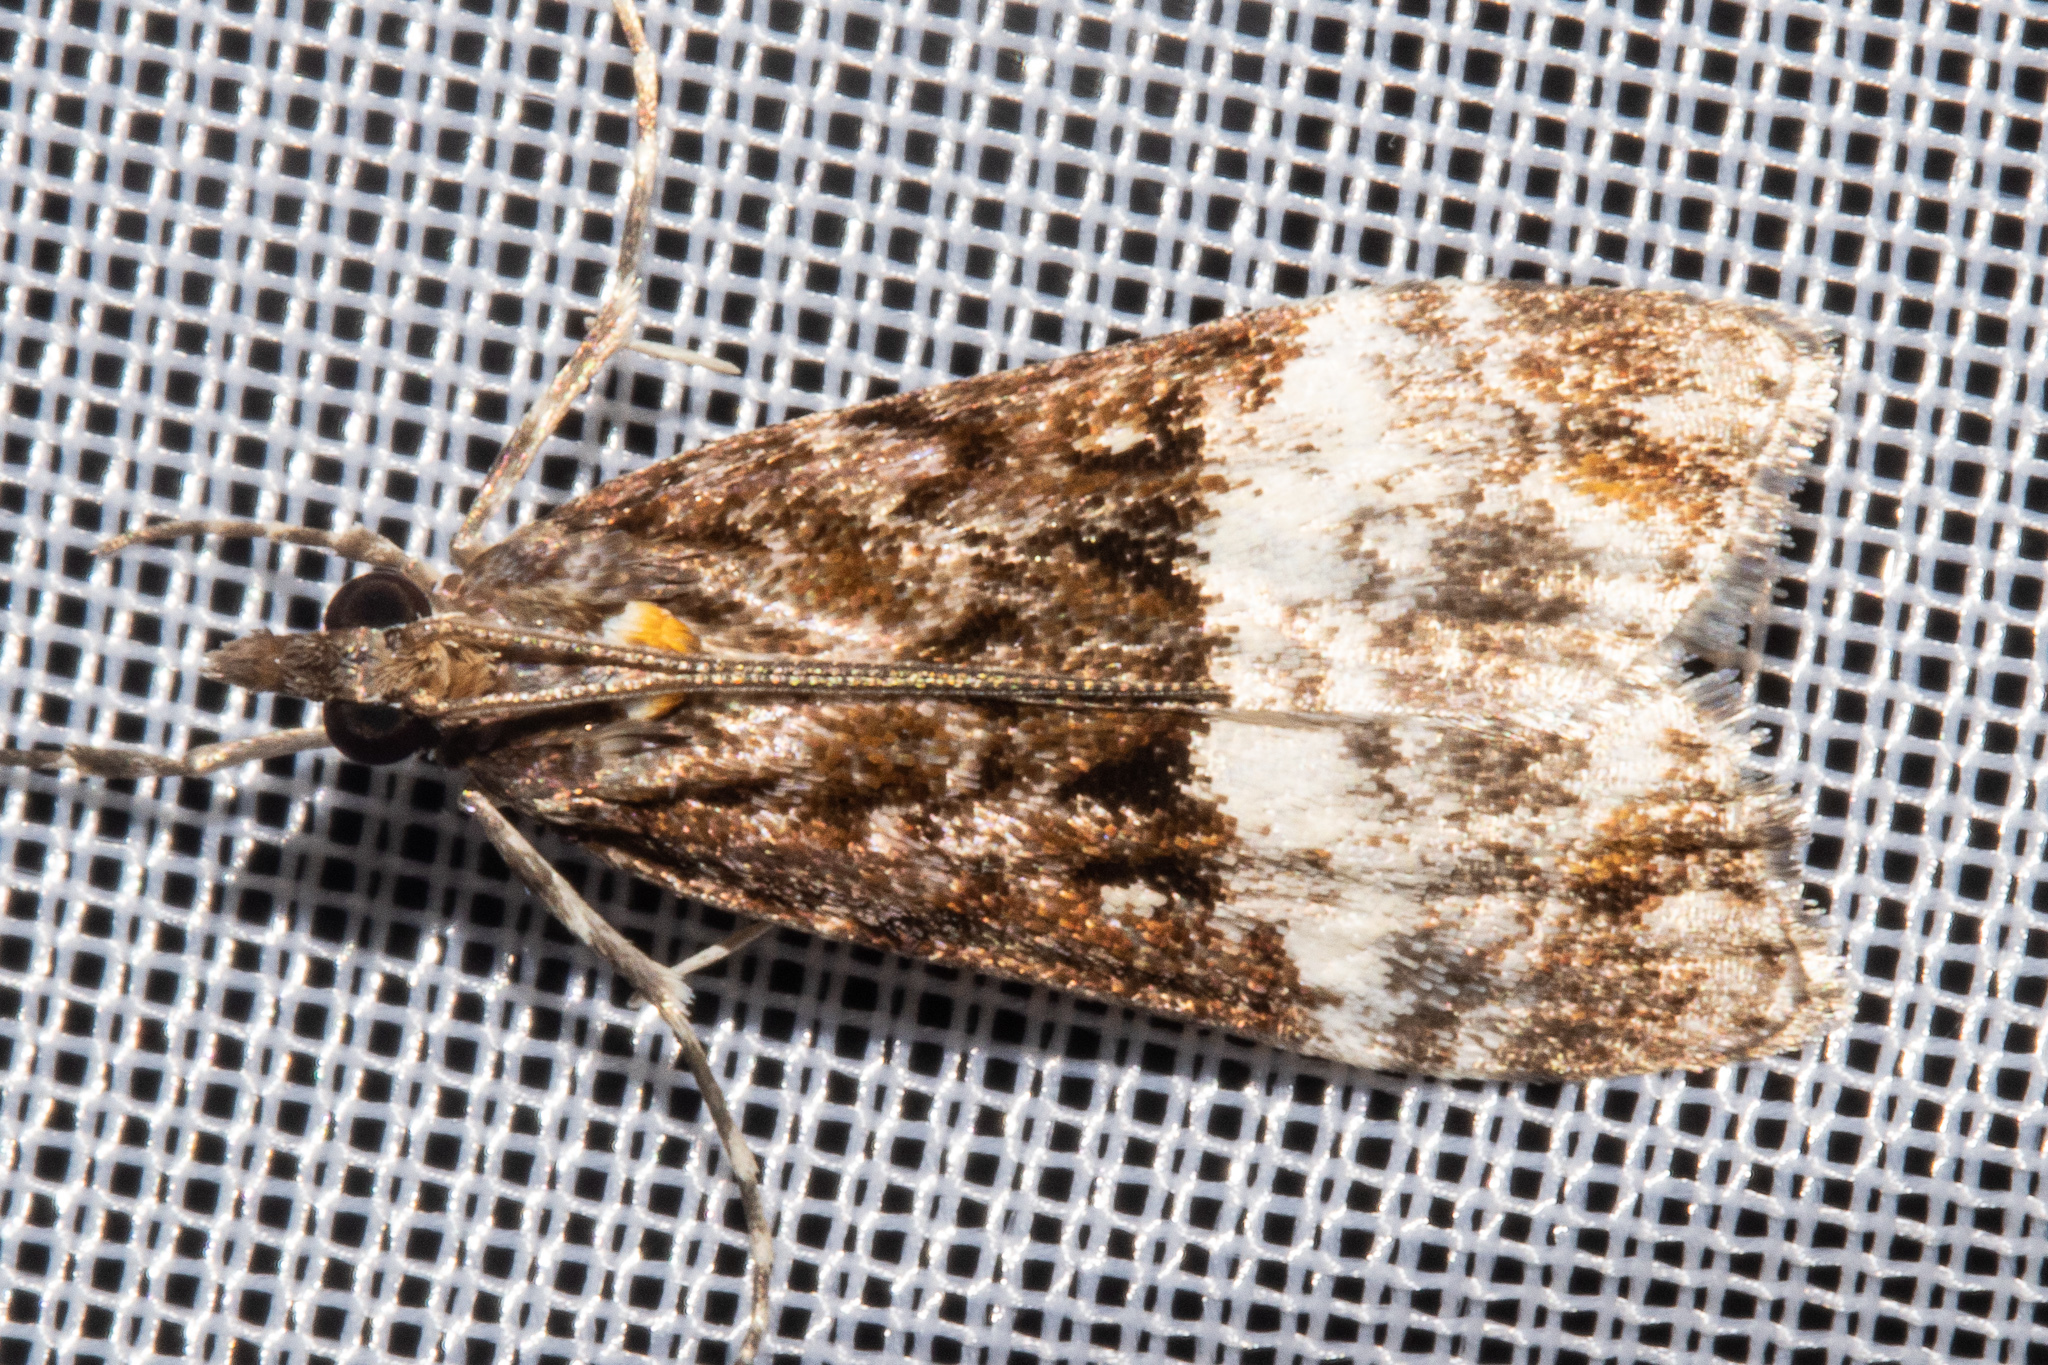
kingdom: Animalia
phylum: Arthropoda
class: Insecta
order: Lepidoptera
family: Crambidae
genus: Scoparia
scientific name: Scoparia minusculalis
